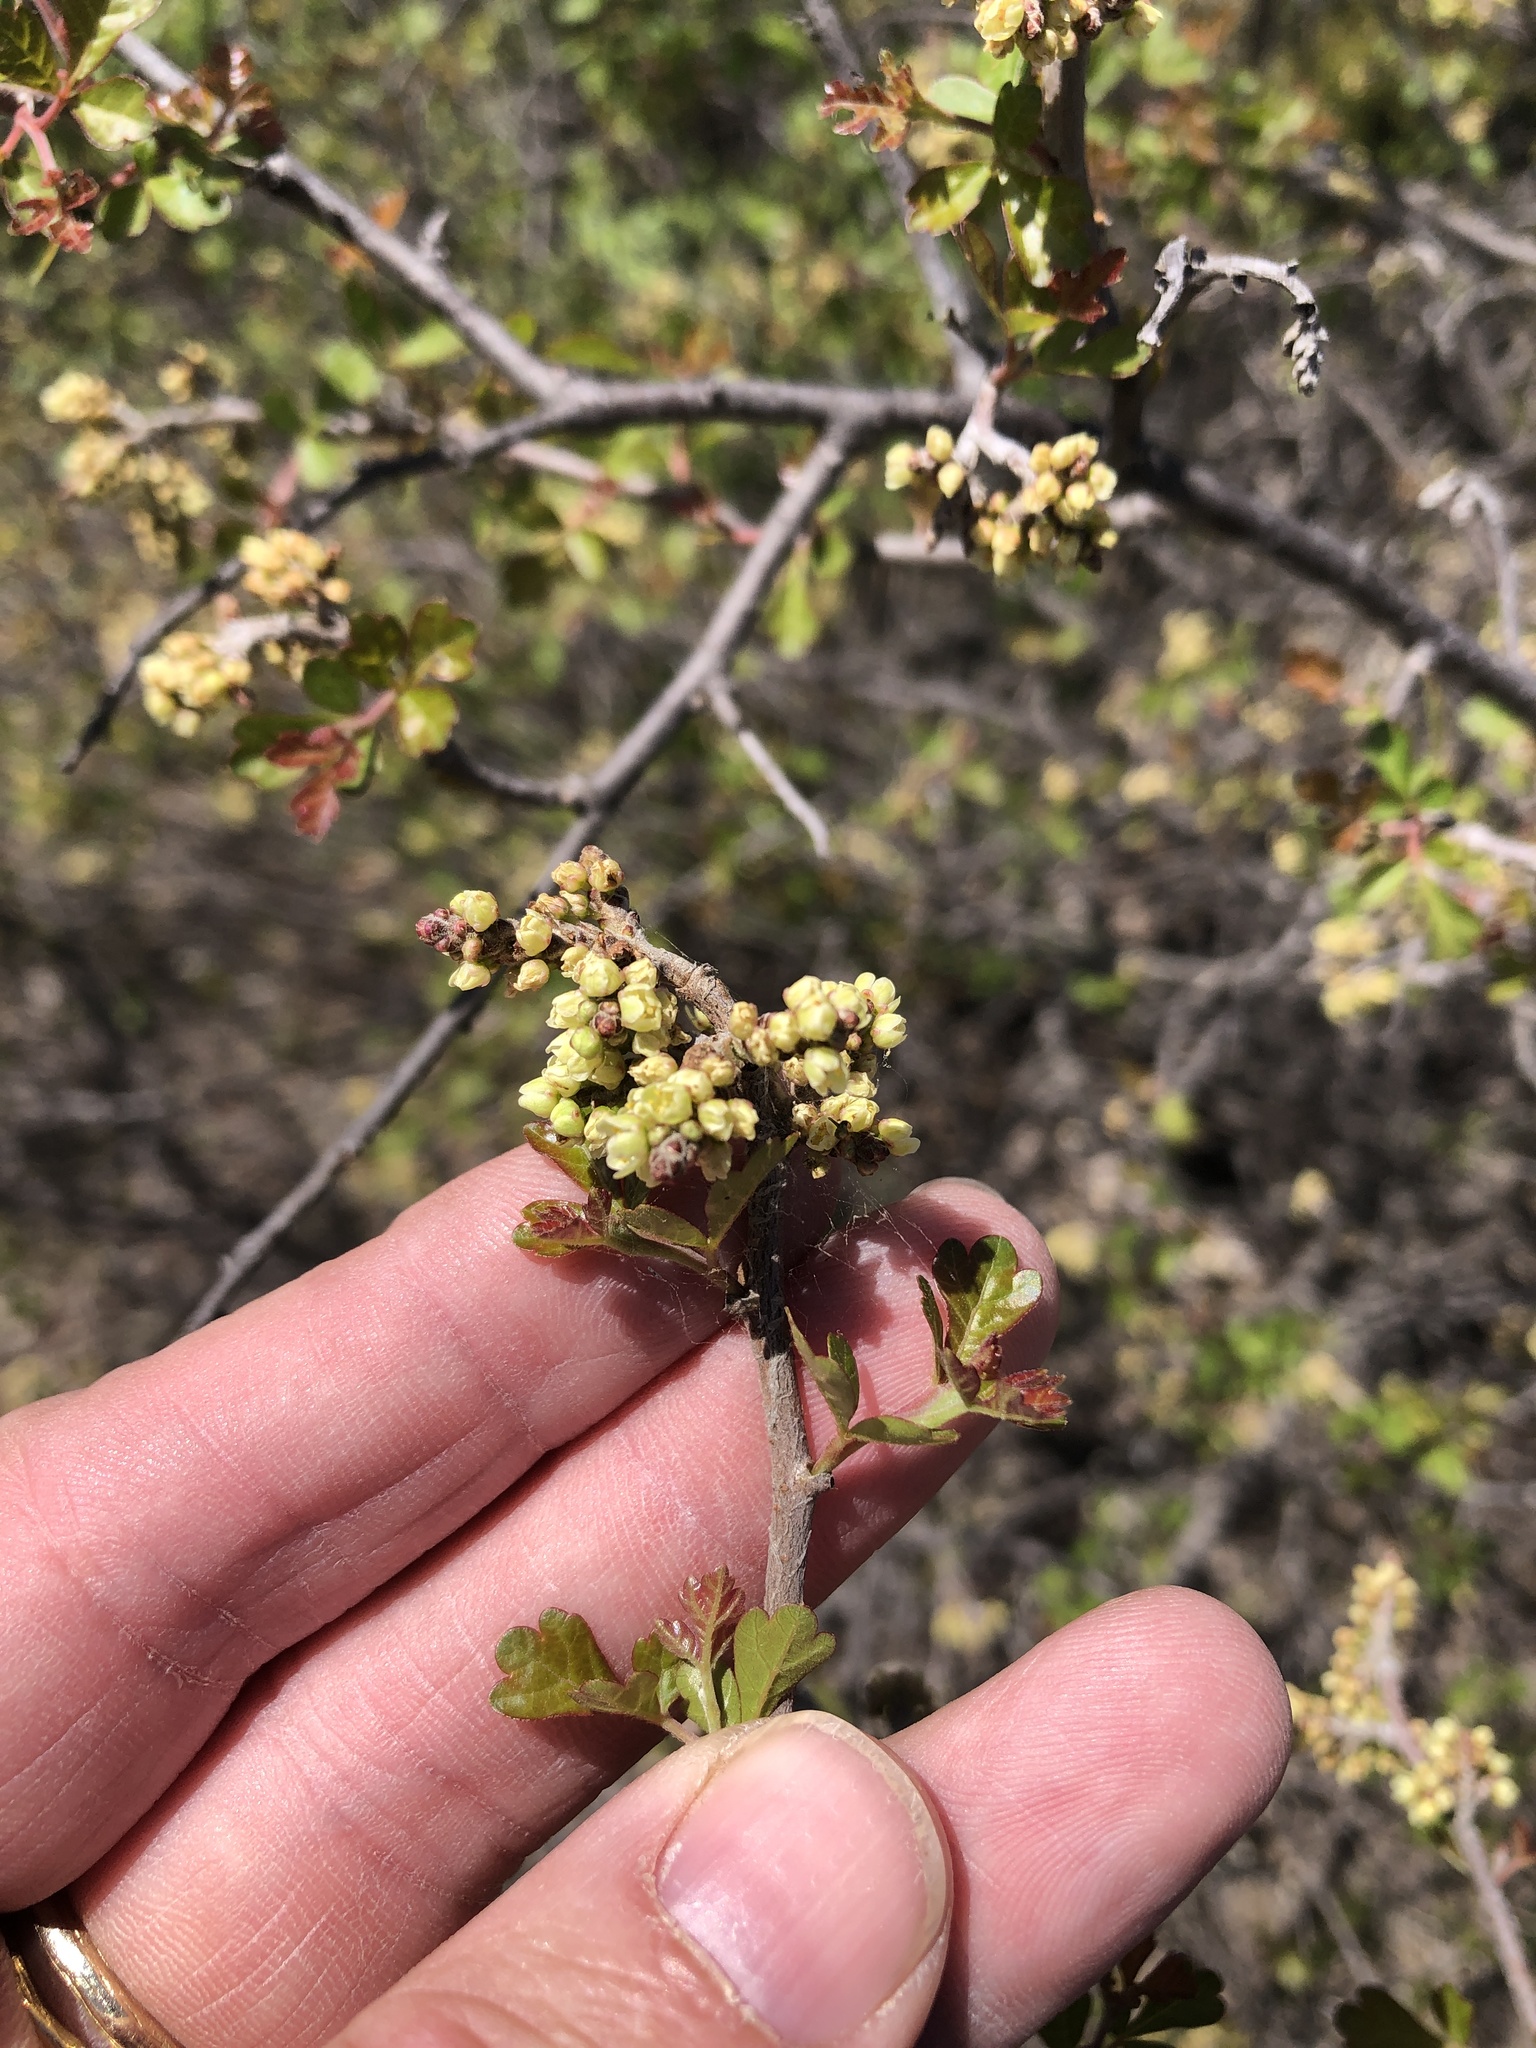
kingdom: Plantae
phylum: Tracheophyta
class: Magnoliopsida
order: Sapindales
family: Anacardiaceae
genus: Rhus
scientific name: Rhus aromatica
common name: Aromatic sumac
